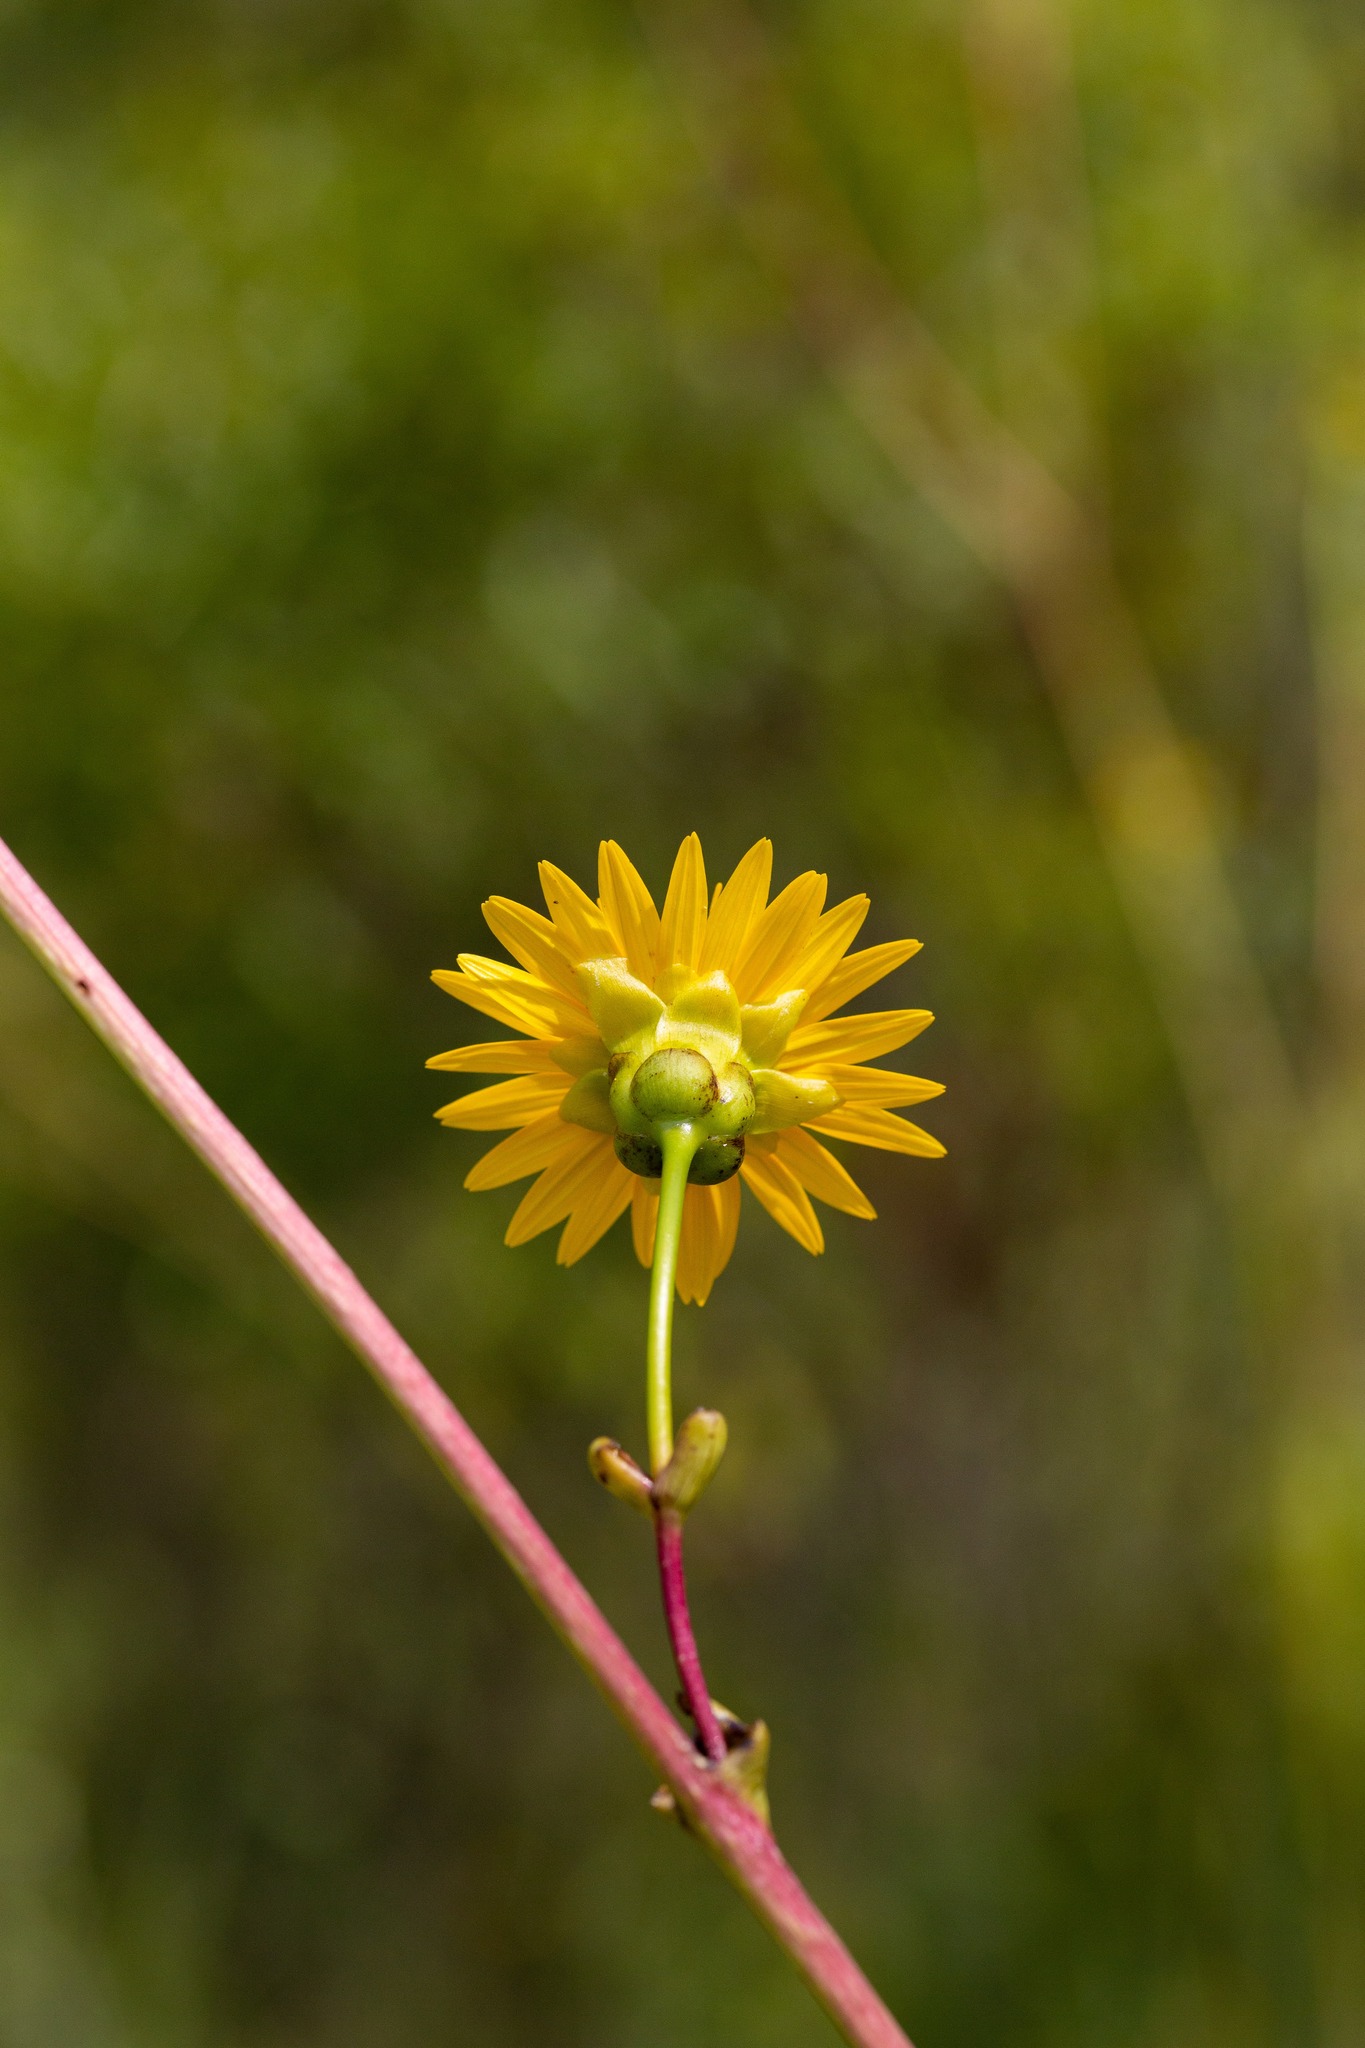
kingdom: Plantae
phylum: Tracheophyta
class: Magnoliopsida
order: Asterales
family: Asteraceae
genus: Silphium
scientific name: Silphium terebinthinaceum
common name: Basal-leaf rosinweed
